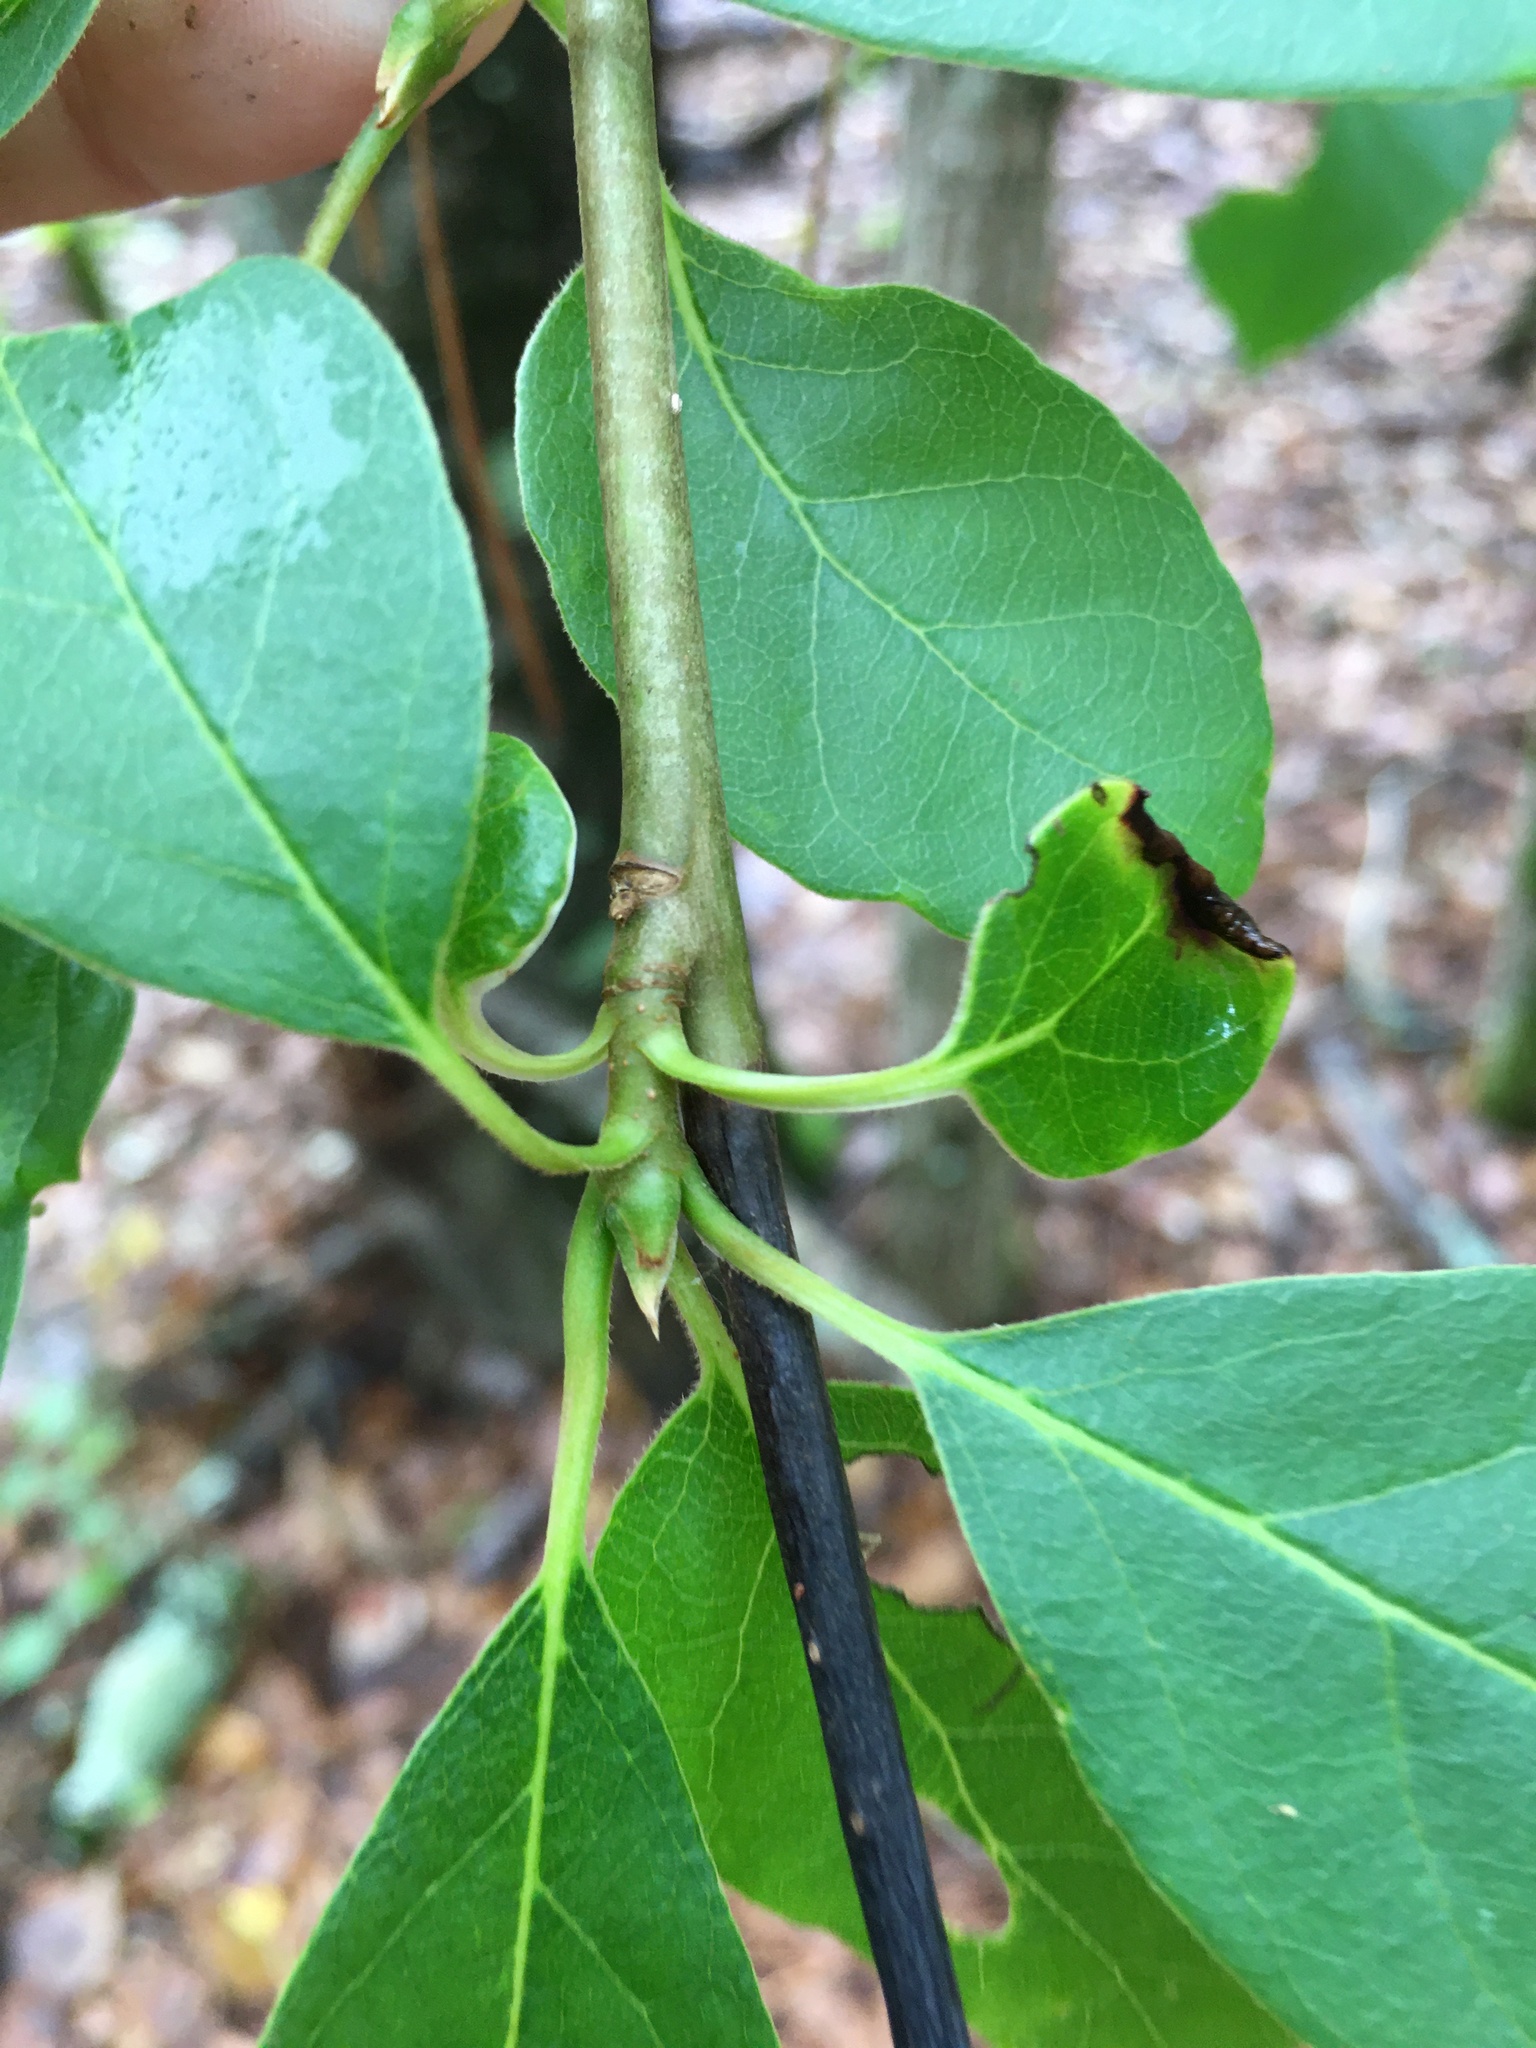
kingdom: Plantae
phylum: Tracheophyta
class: Magnoliopsida
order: Cornales
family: Nyssaceae
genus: Nyssa
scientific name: Nyssa sylvatica
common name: Black tupelo
